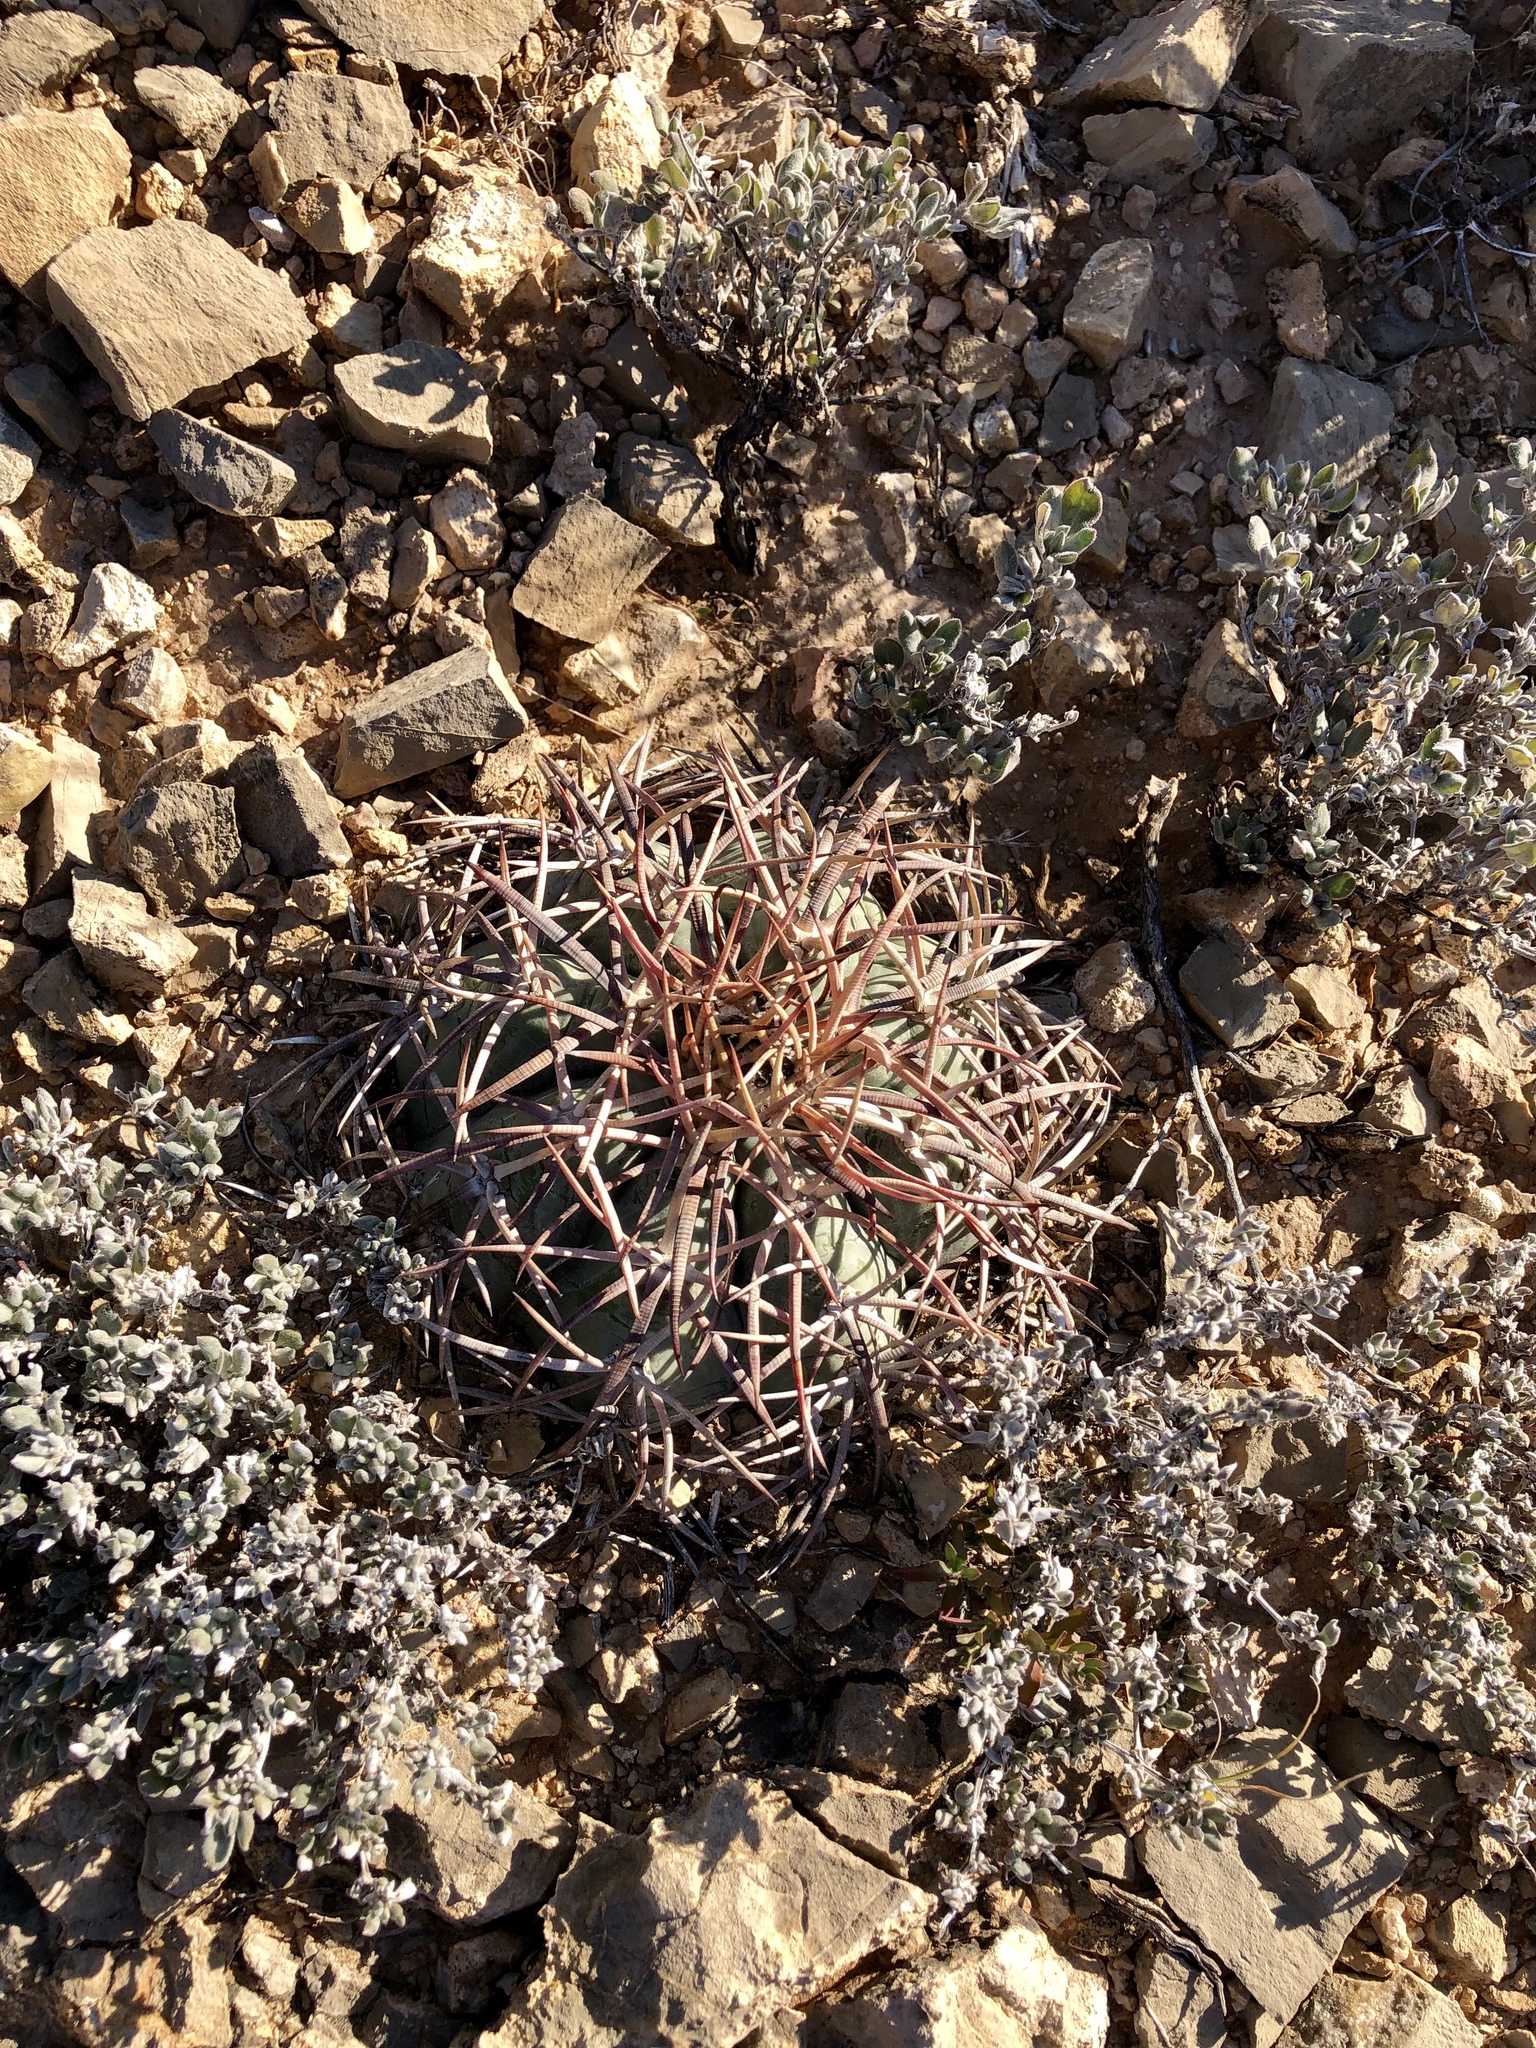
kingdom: Plantae
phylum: Tracheophyta
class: Magnoliopsida
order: Caryophyllales
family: Cactaceae
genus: Echinocactus
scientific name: Echinocactus horizonthalonius
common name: Devilshead
